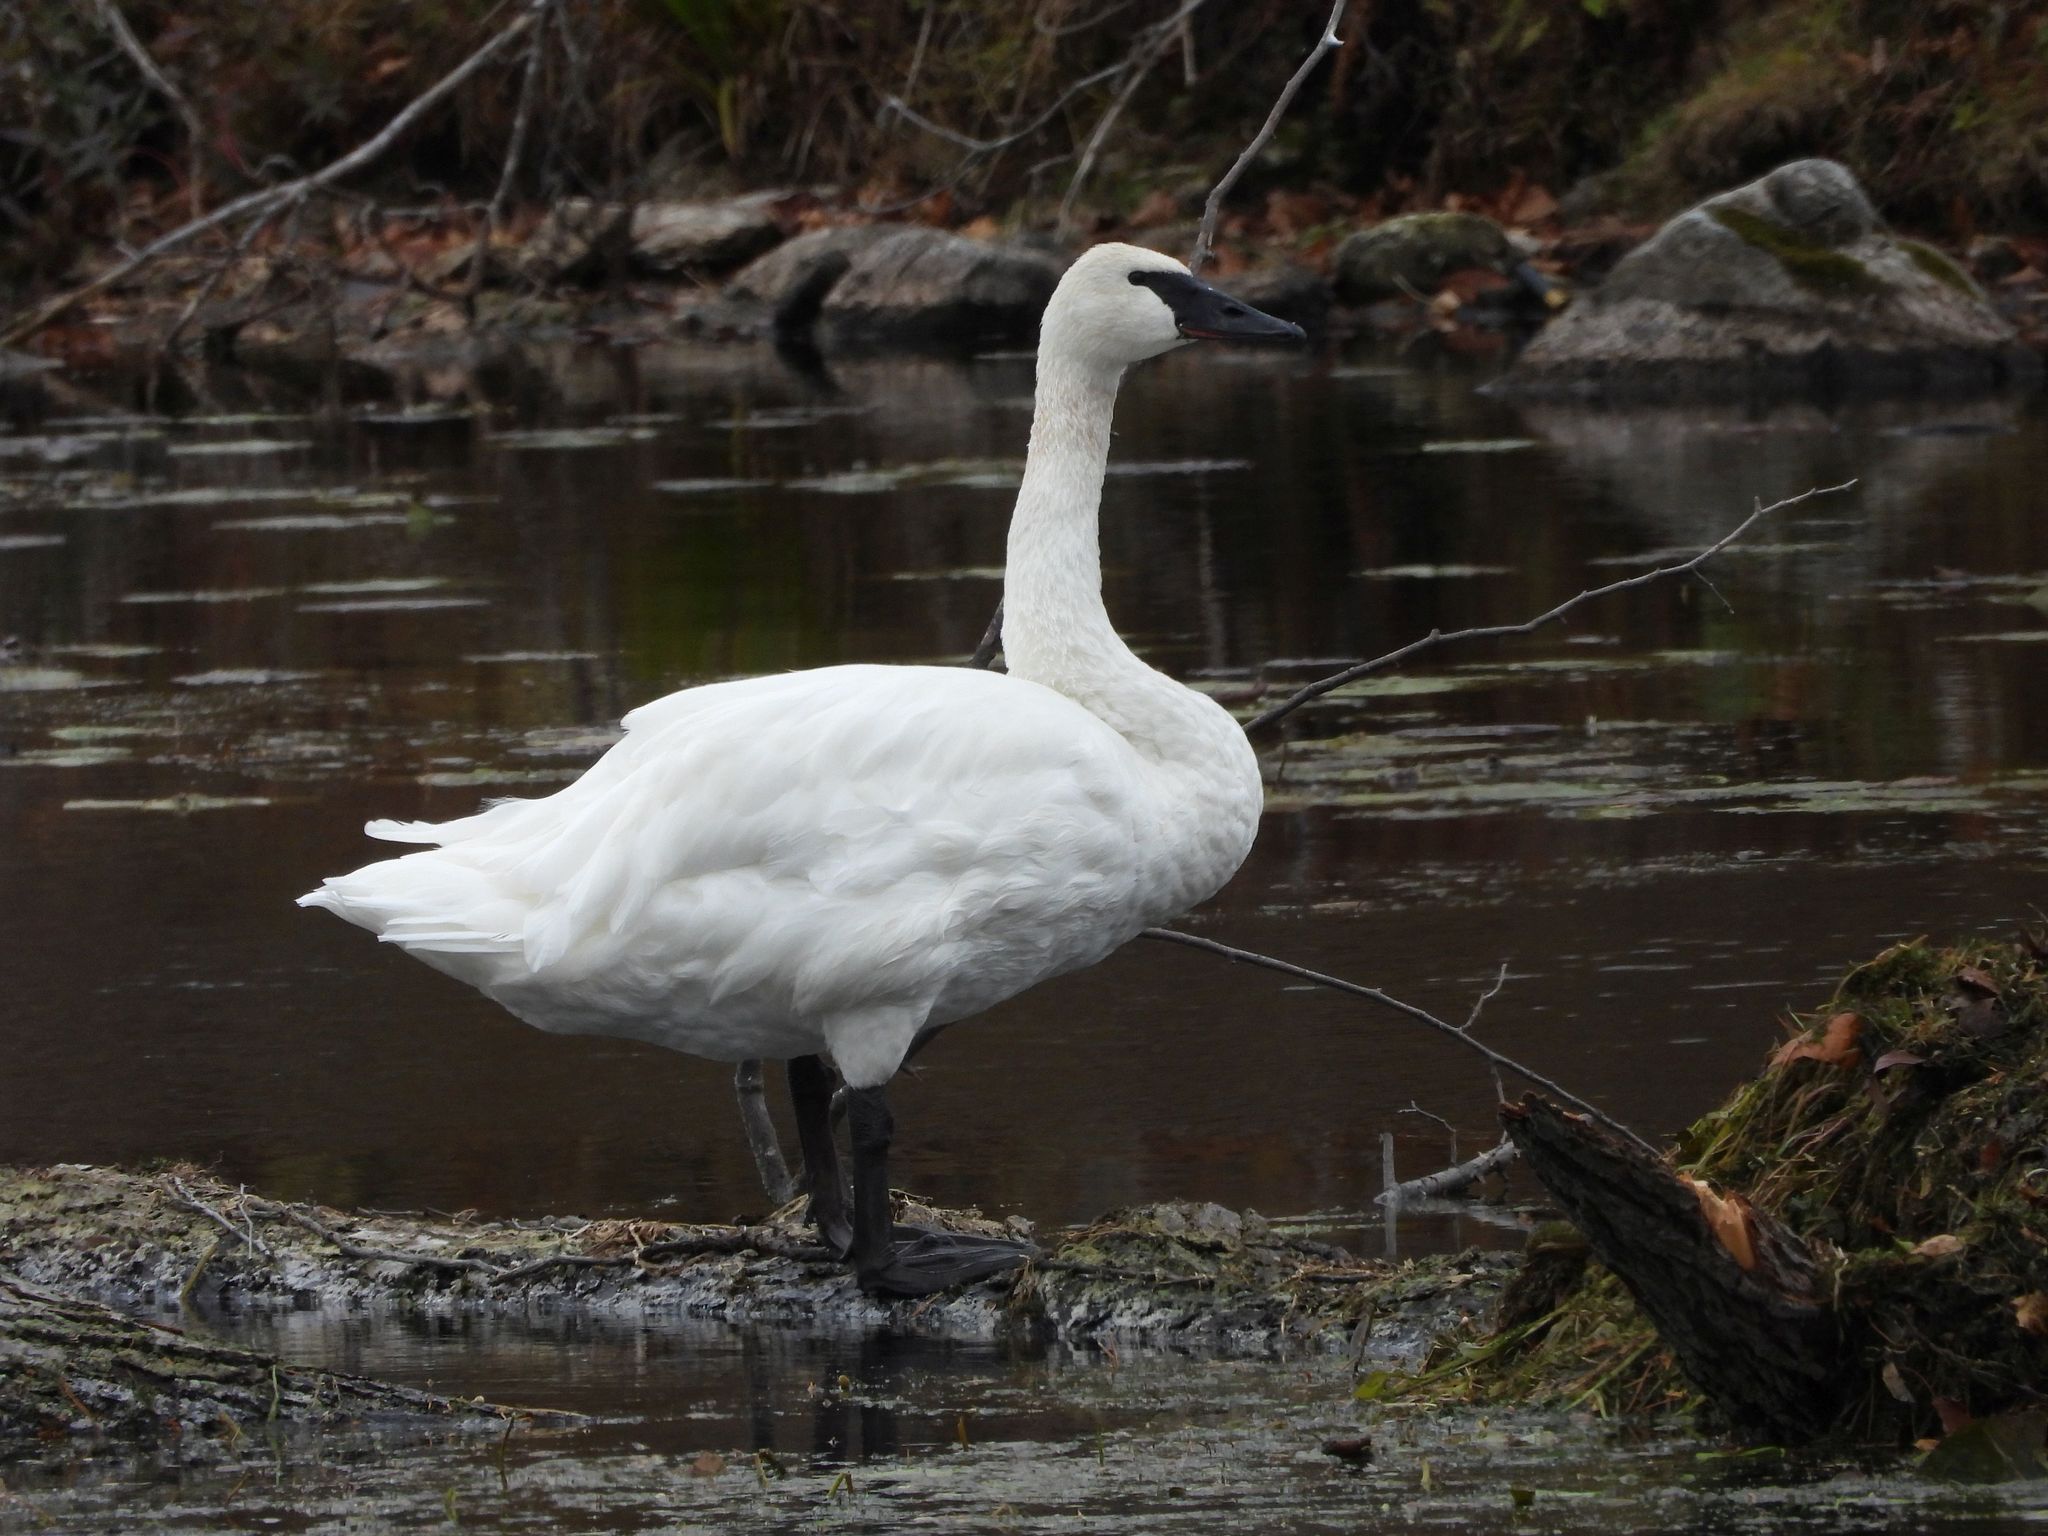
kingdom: Animalia
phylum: Chordata
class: Aves
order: Anseriformes
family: Anatidae
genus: Cygnus
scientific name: Cygnus buccinator
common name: Trumpeter swan
